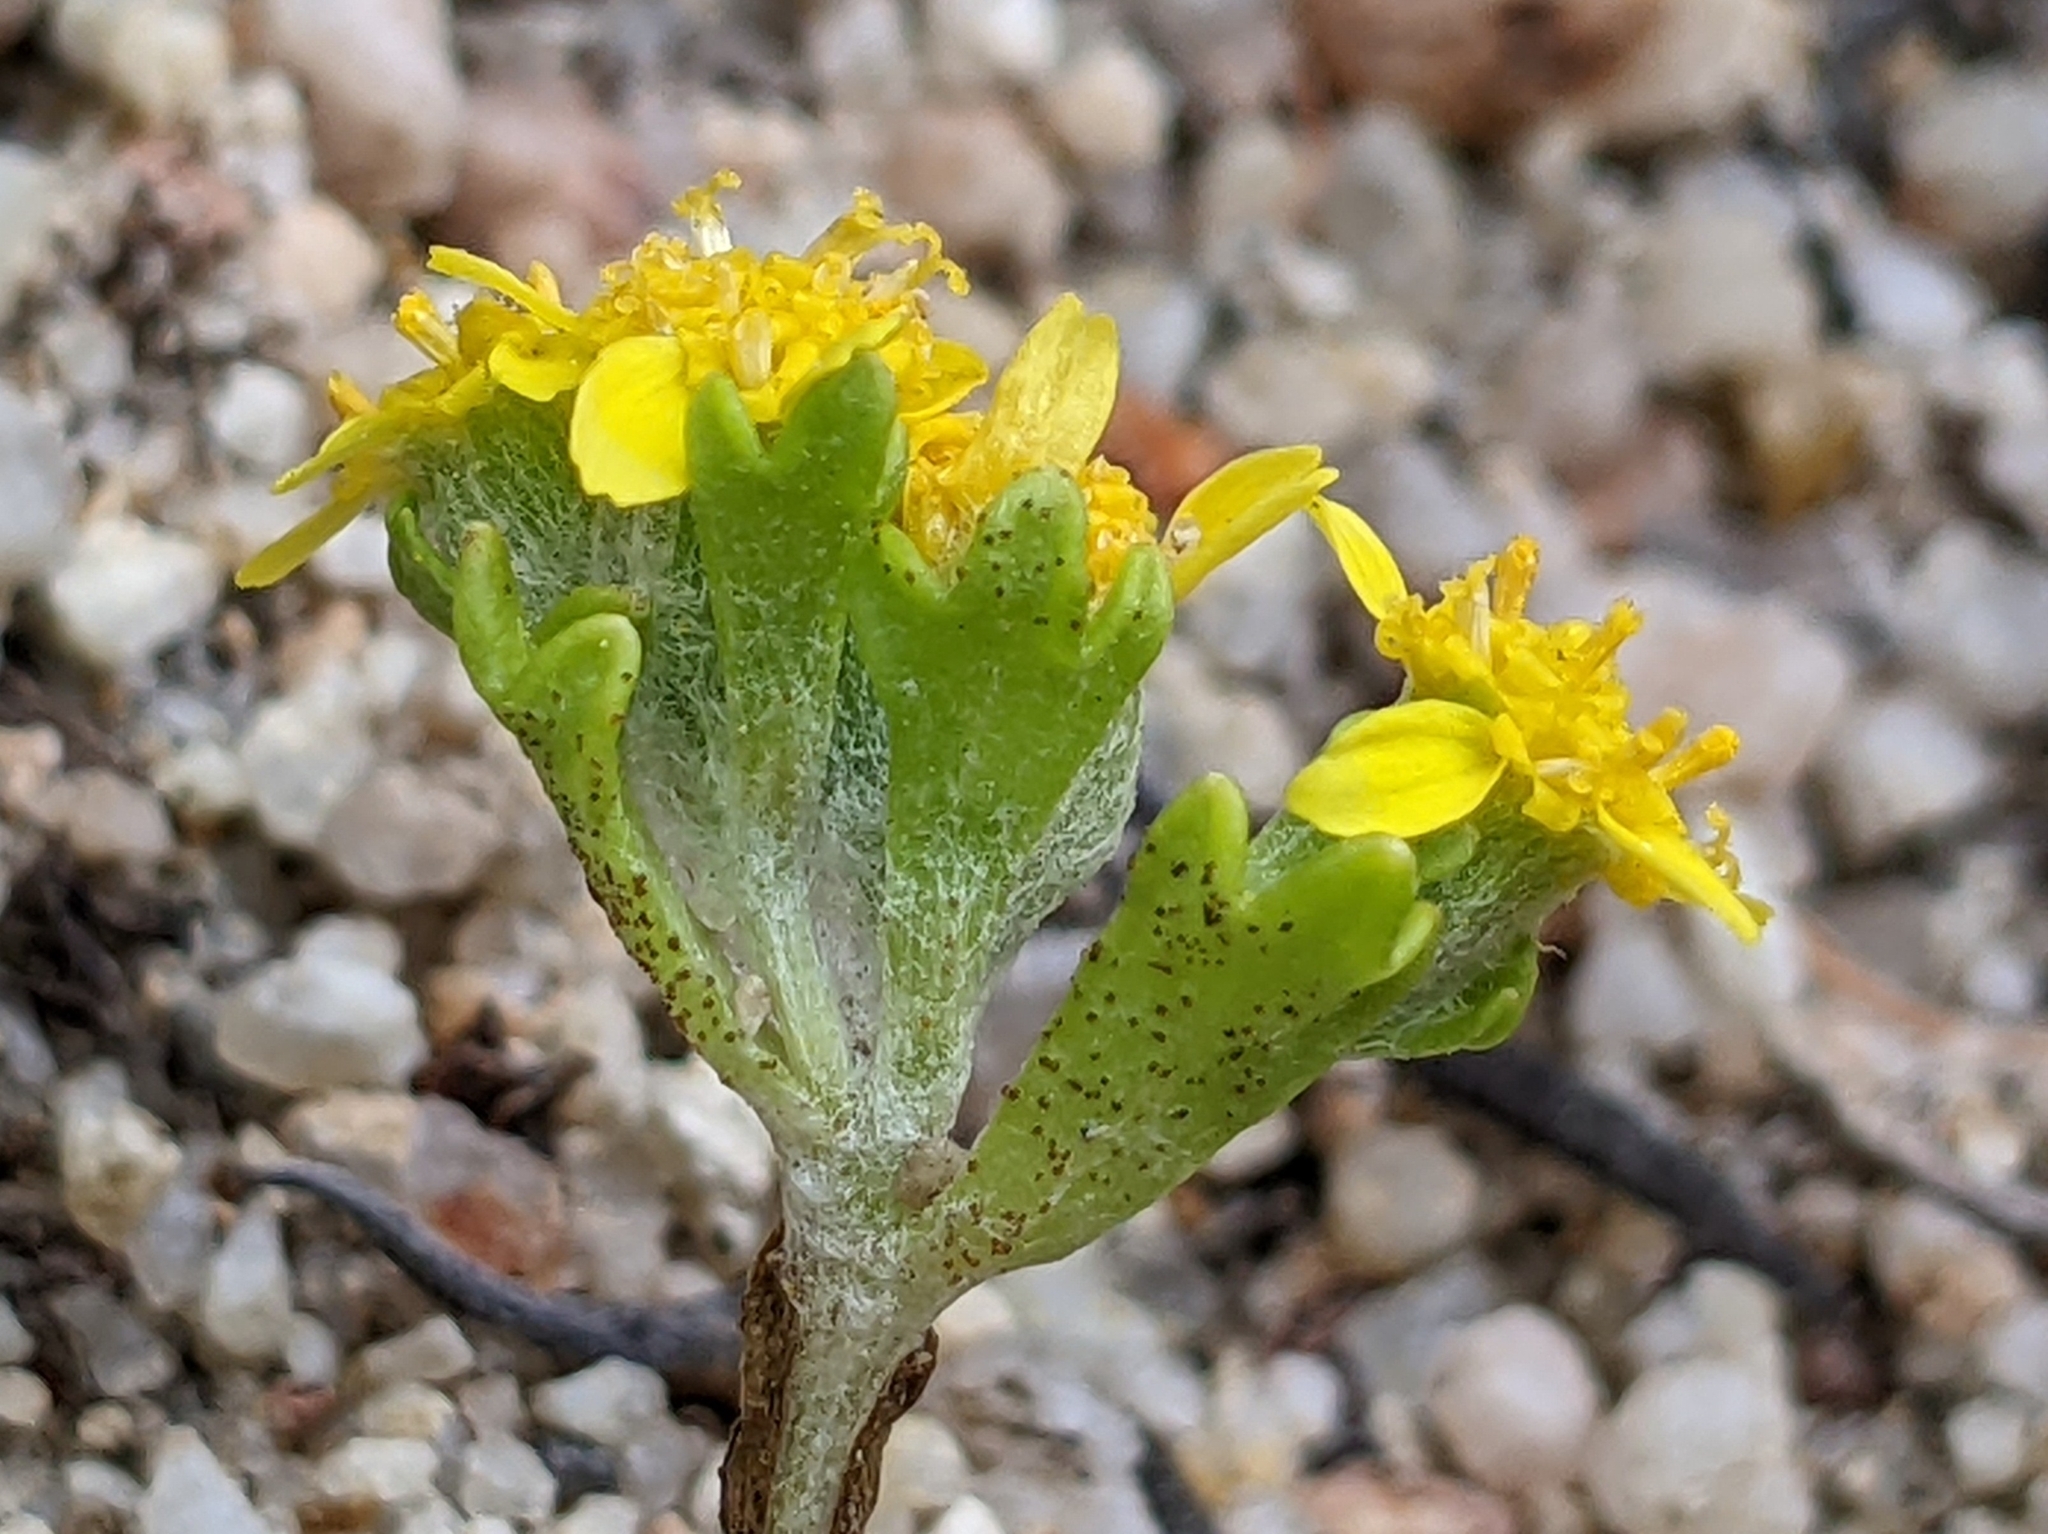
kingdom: Plantae
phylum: Tracheophyta
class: Magnoliopsida
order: Asterales
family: Asteraceae
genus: Eriophyllum
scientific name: Eriophyllum multicaule
